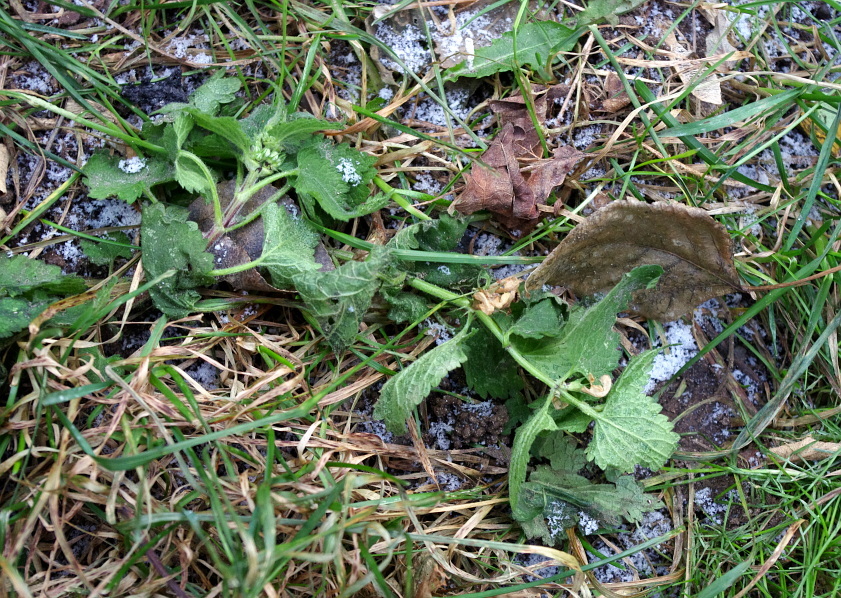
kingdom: Plantae
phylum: Tracheophyta
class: Magnoliopsida
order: Lamiales
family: Lamiaceae
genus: Lamium
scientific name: Lamium album
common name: White dead-nettle
